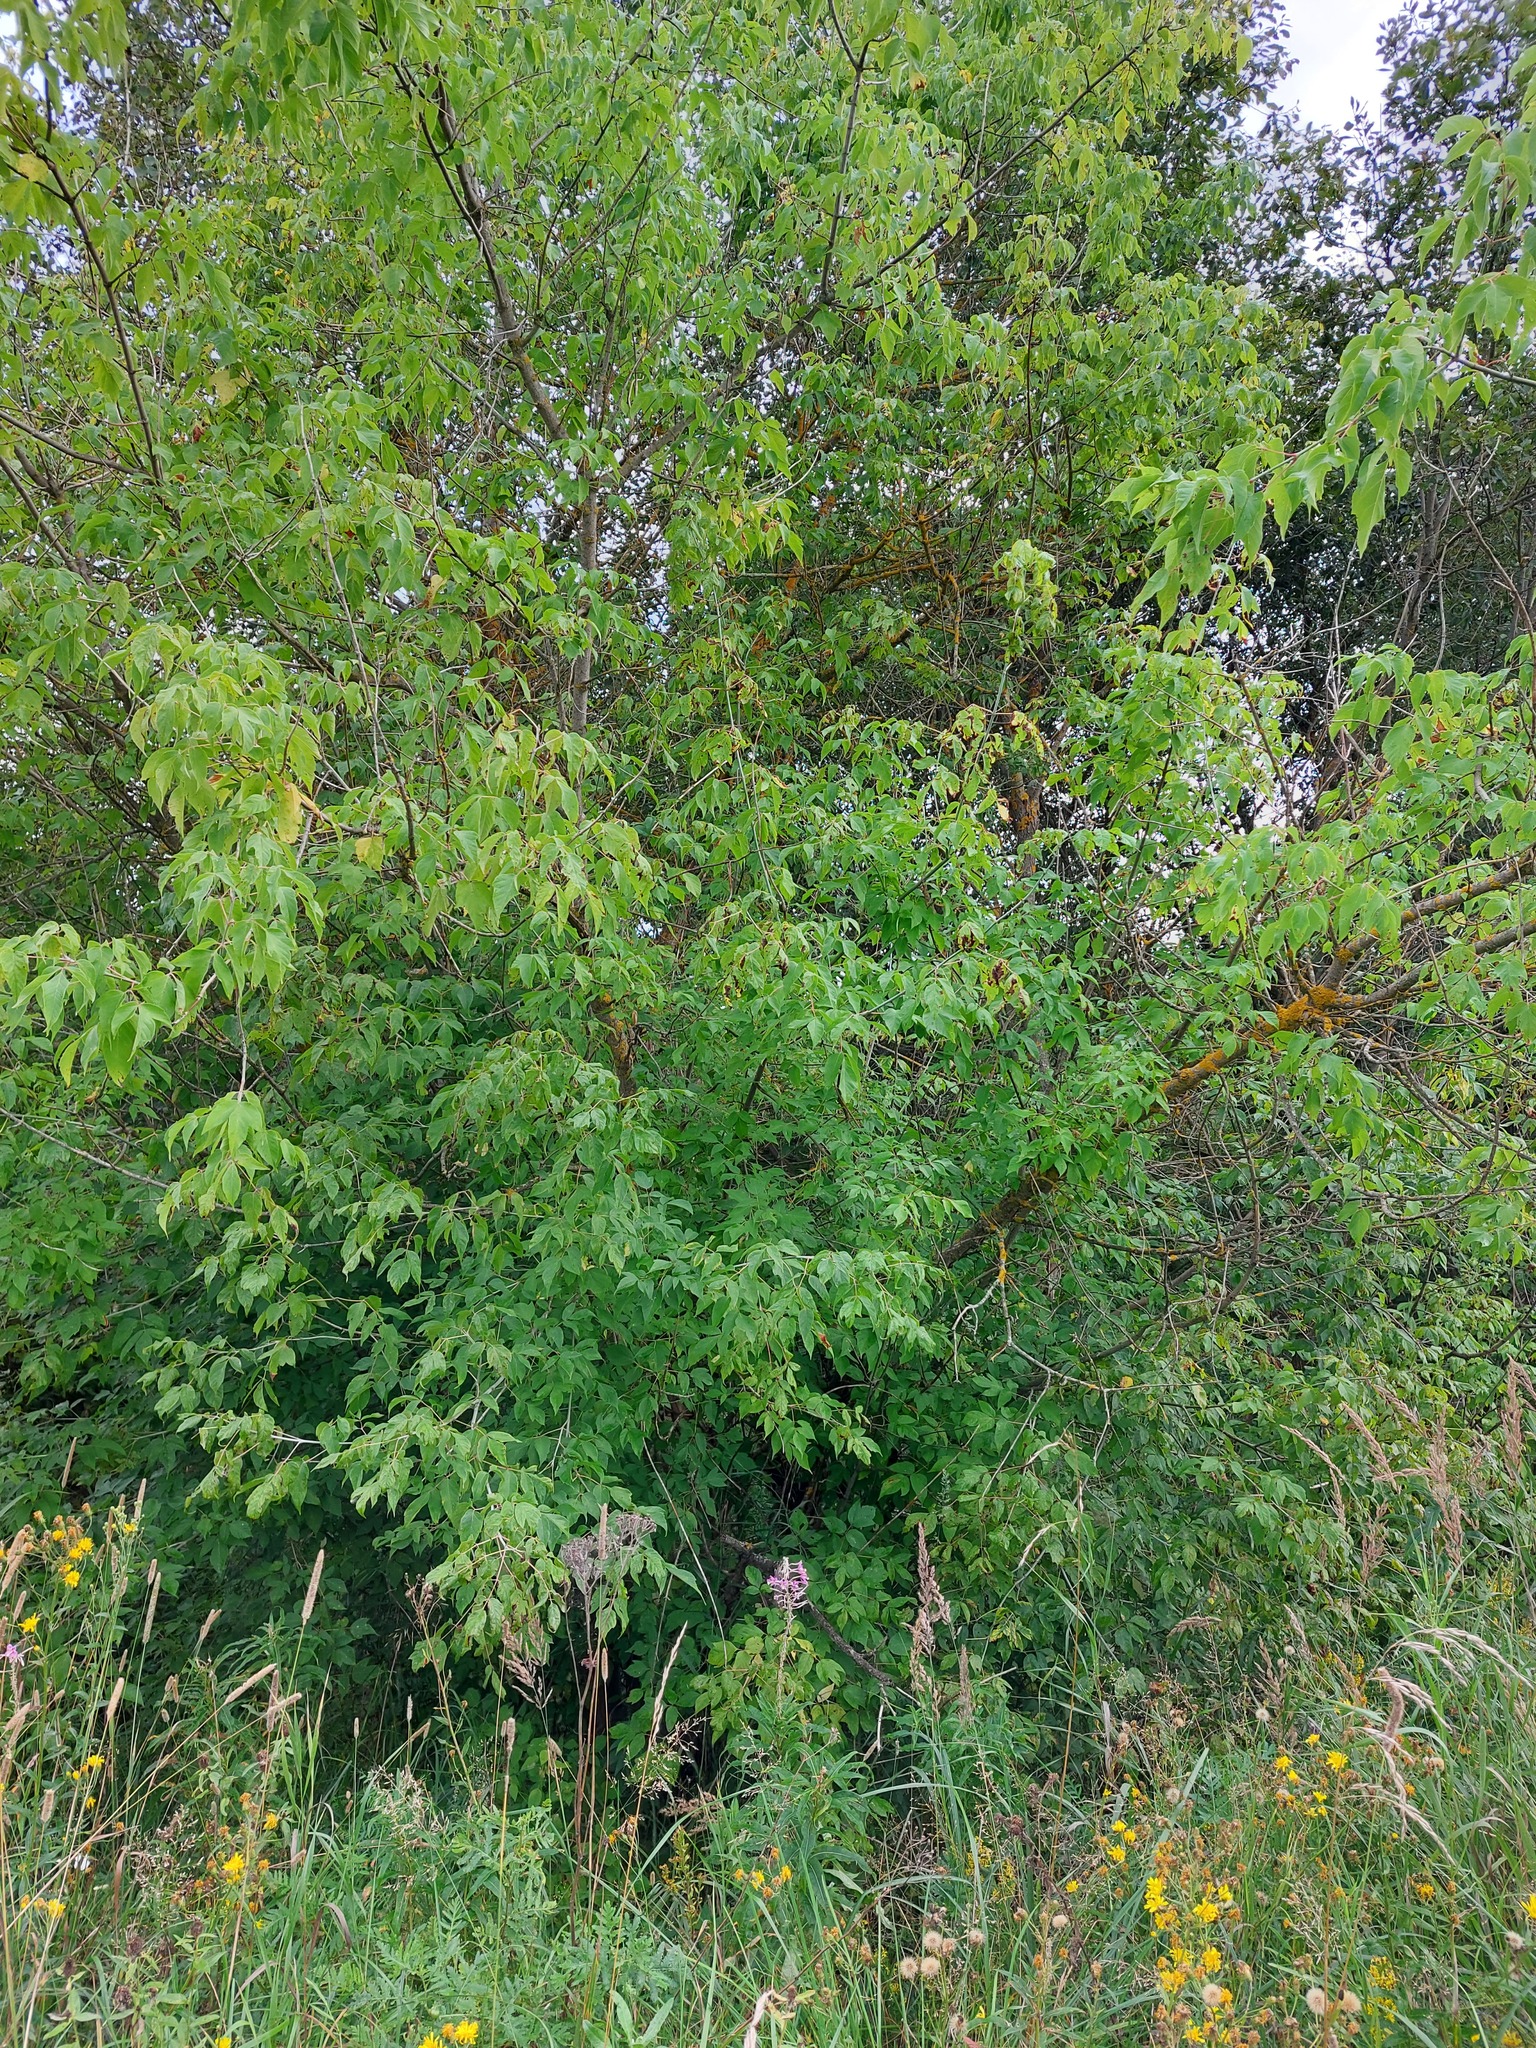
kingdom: Plantae
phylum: Tracheophyta
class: Magnoliopsida
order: Sapindales
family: Sapindaceae
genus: Acer
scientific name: Acer negundo
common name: Ashleaf maple
